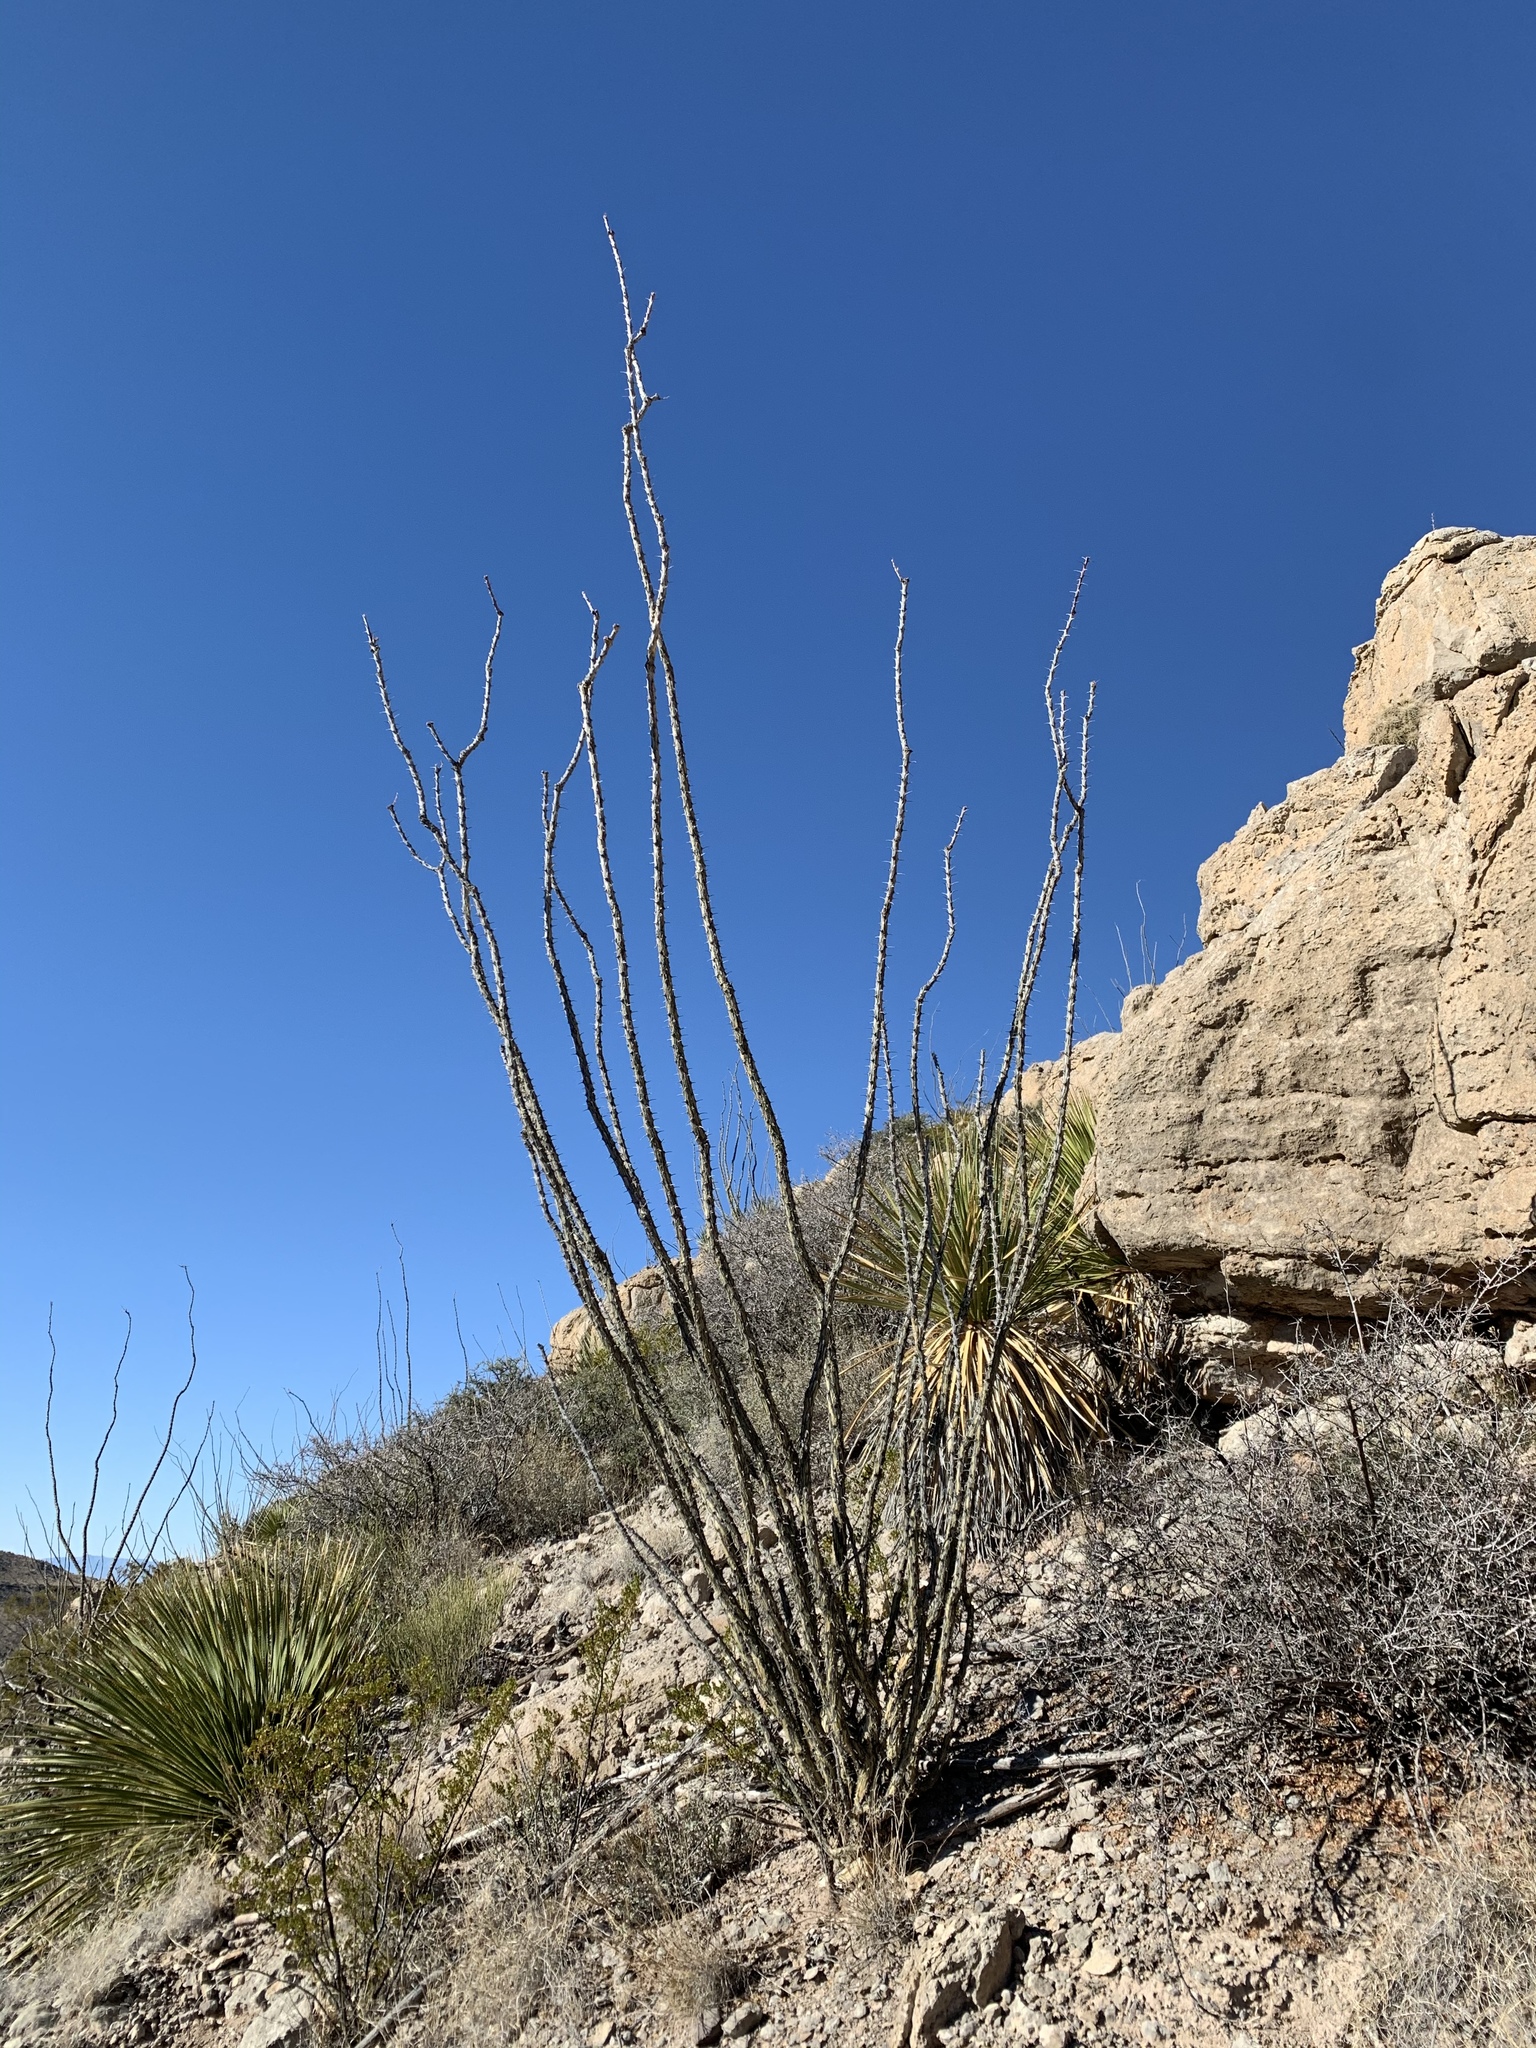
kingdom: Plantae
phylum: Tracheophyta
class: Magnoliopsida
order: Ericales
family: Fouquieriaceae
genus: Fouquieria
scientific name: Fouquieria splendens
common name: Vine-cactus
